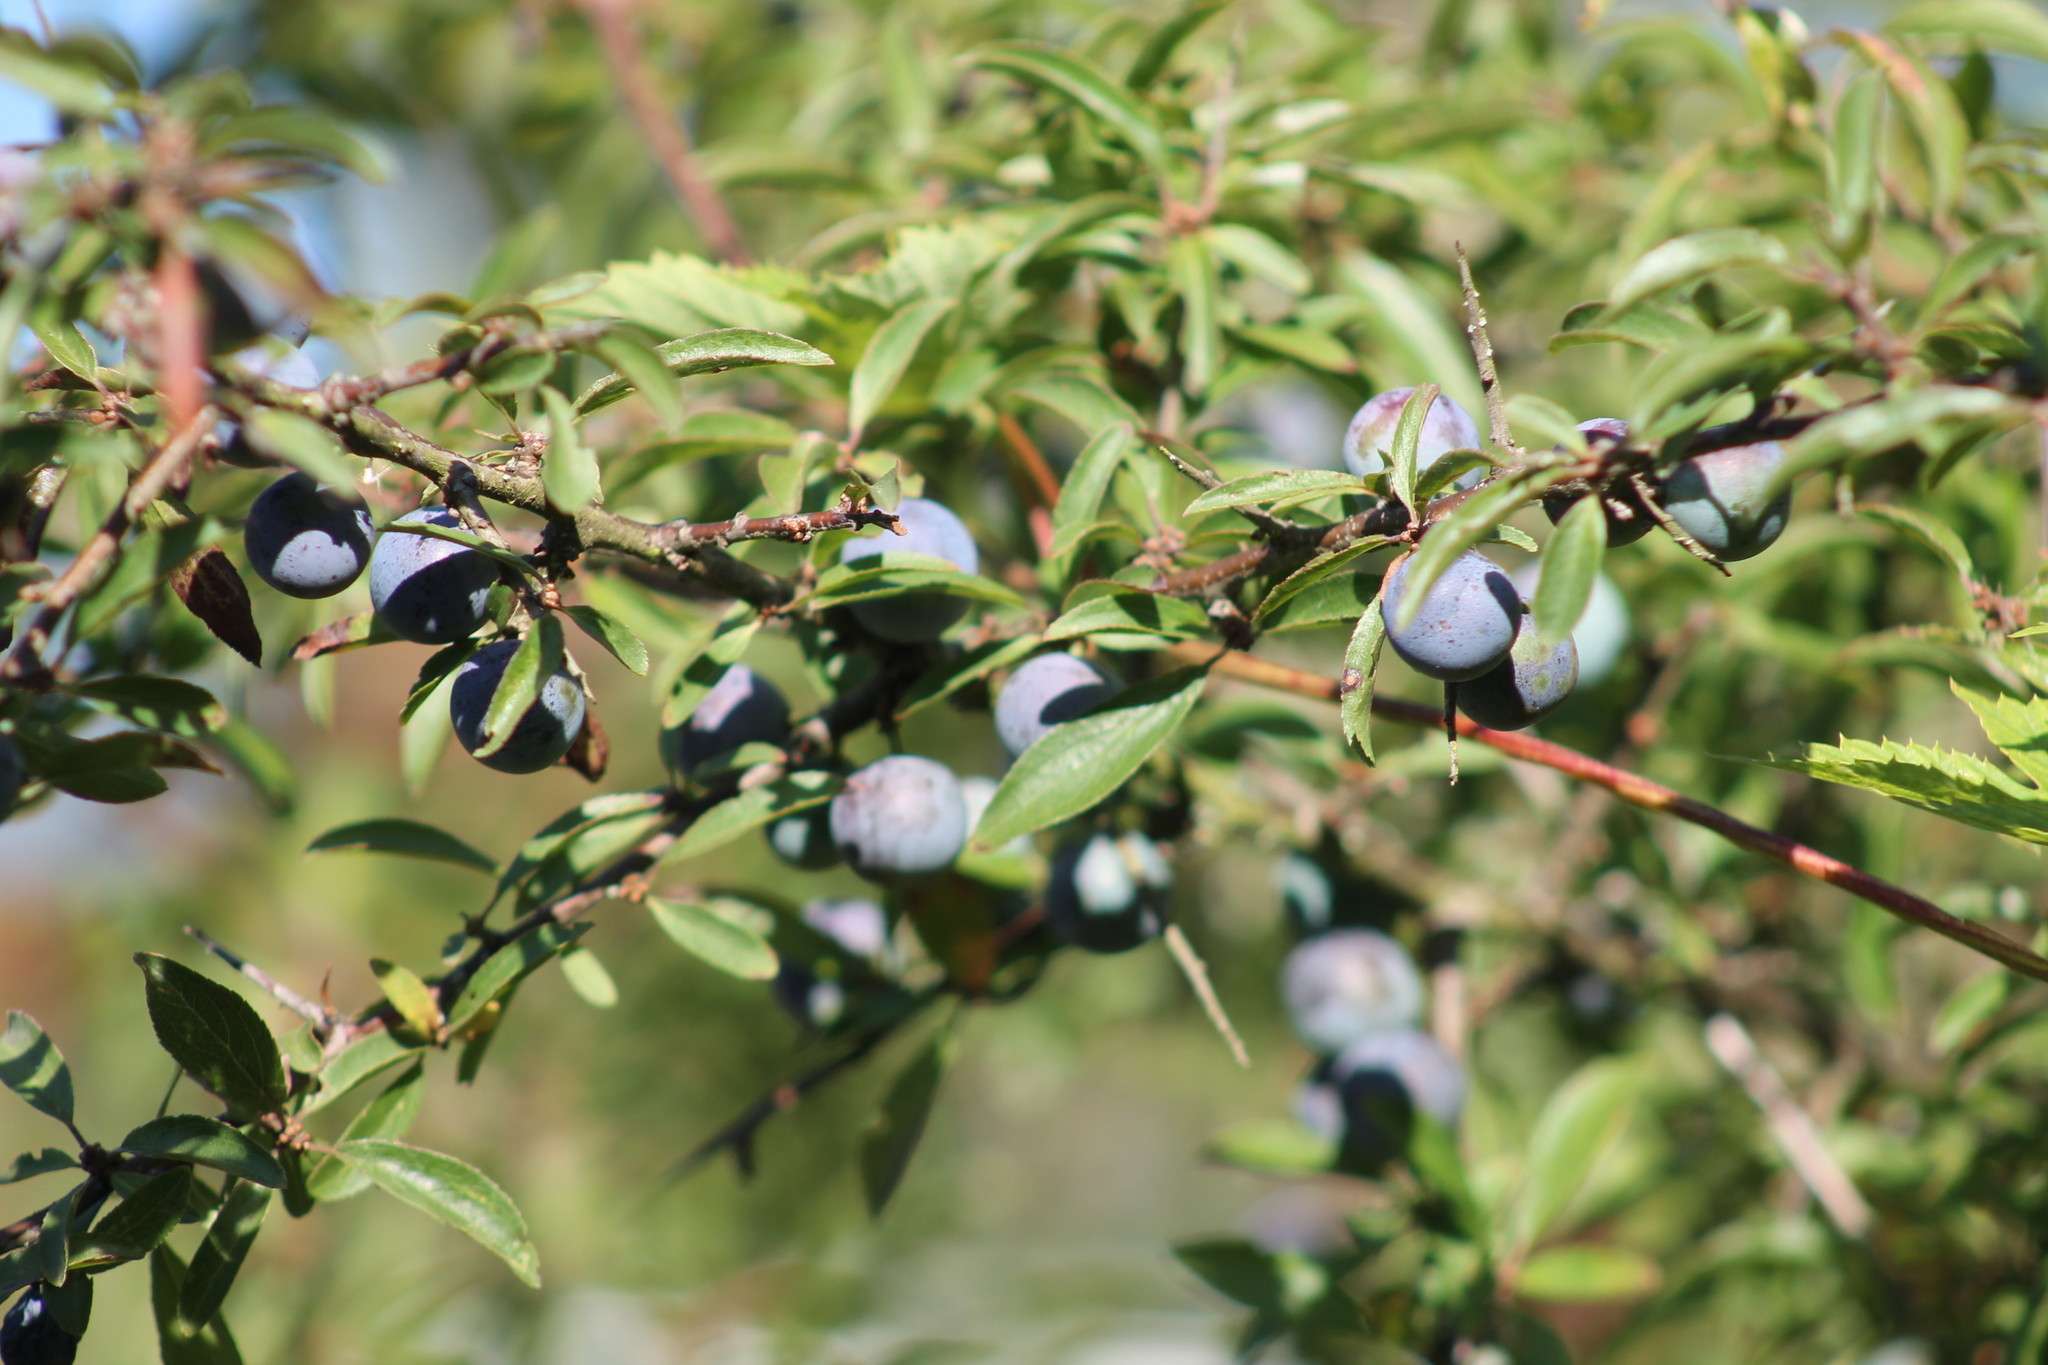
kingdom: Plantae
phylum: Tracheophyta
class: Magnoliopsida
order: Rosales
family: Rosaceae
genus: Prunus
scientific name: Prunus spinosa
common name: Blackthorn
